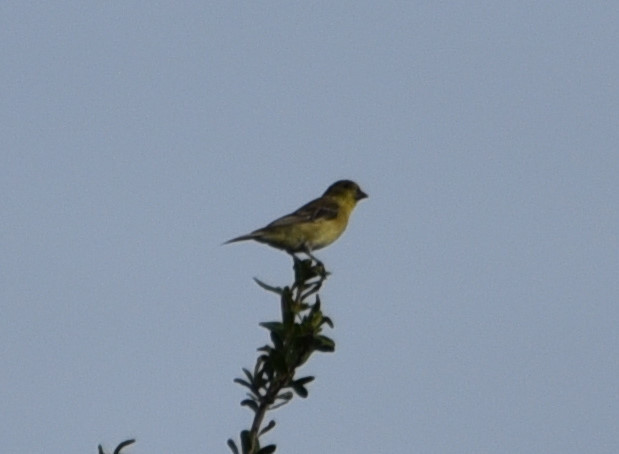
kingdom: Animalia
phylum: Chordata
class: Aves
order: Passeriformes
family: Fringillidae
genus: Spinus
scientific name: Spinus psaltria
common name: Lesser goldfinch
